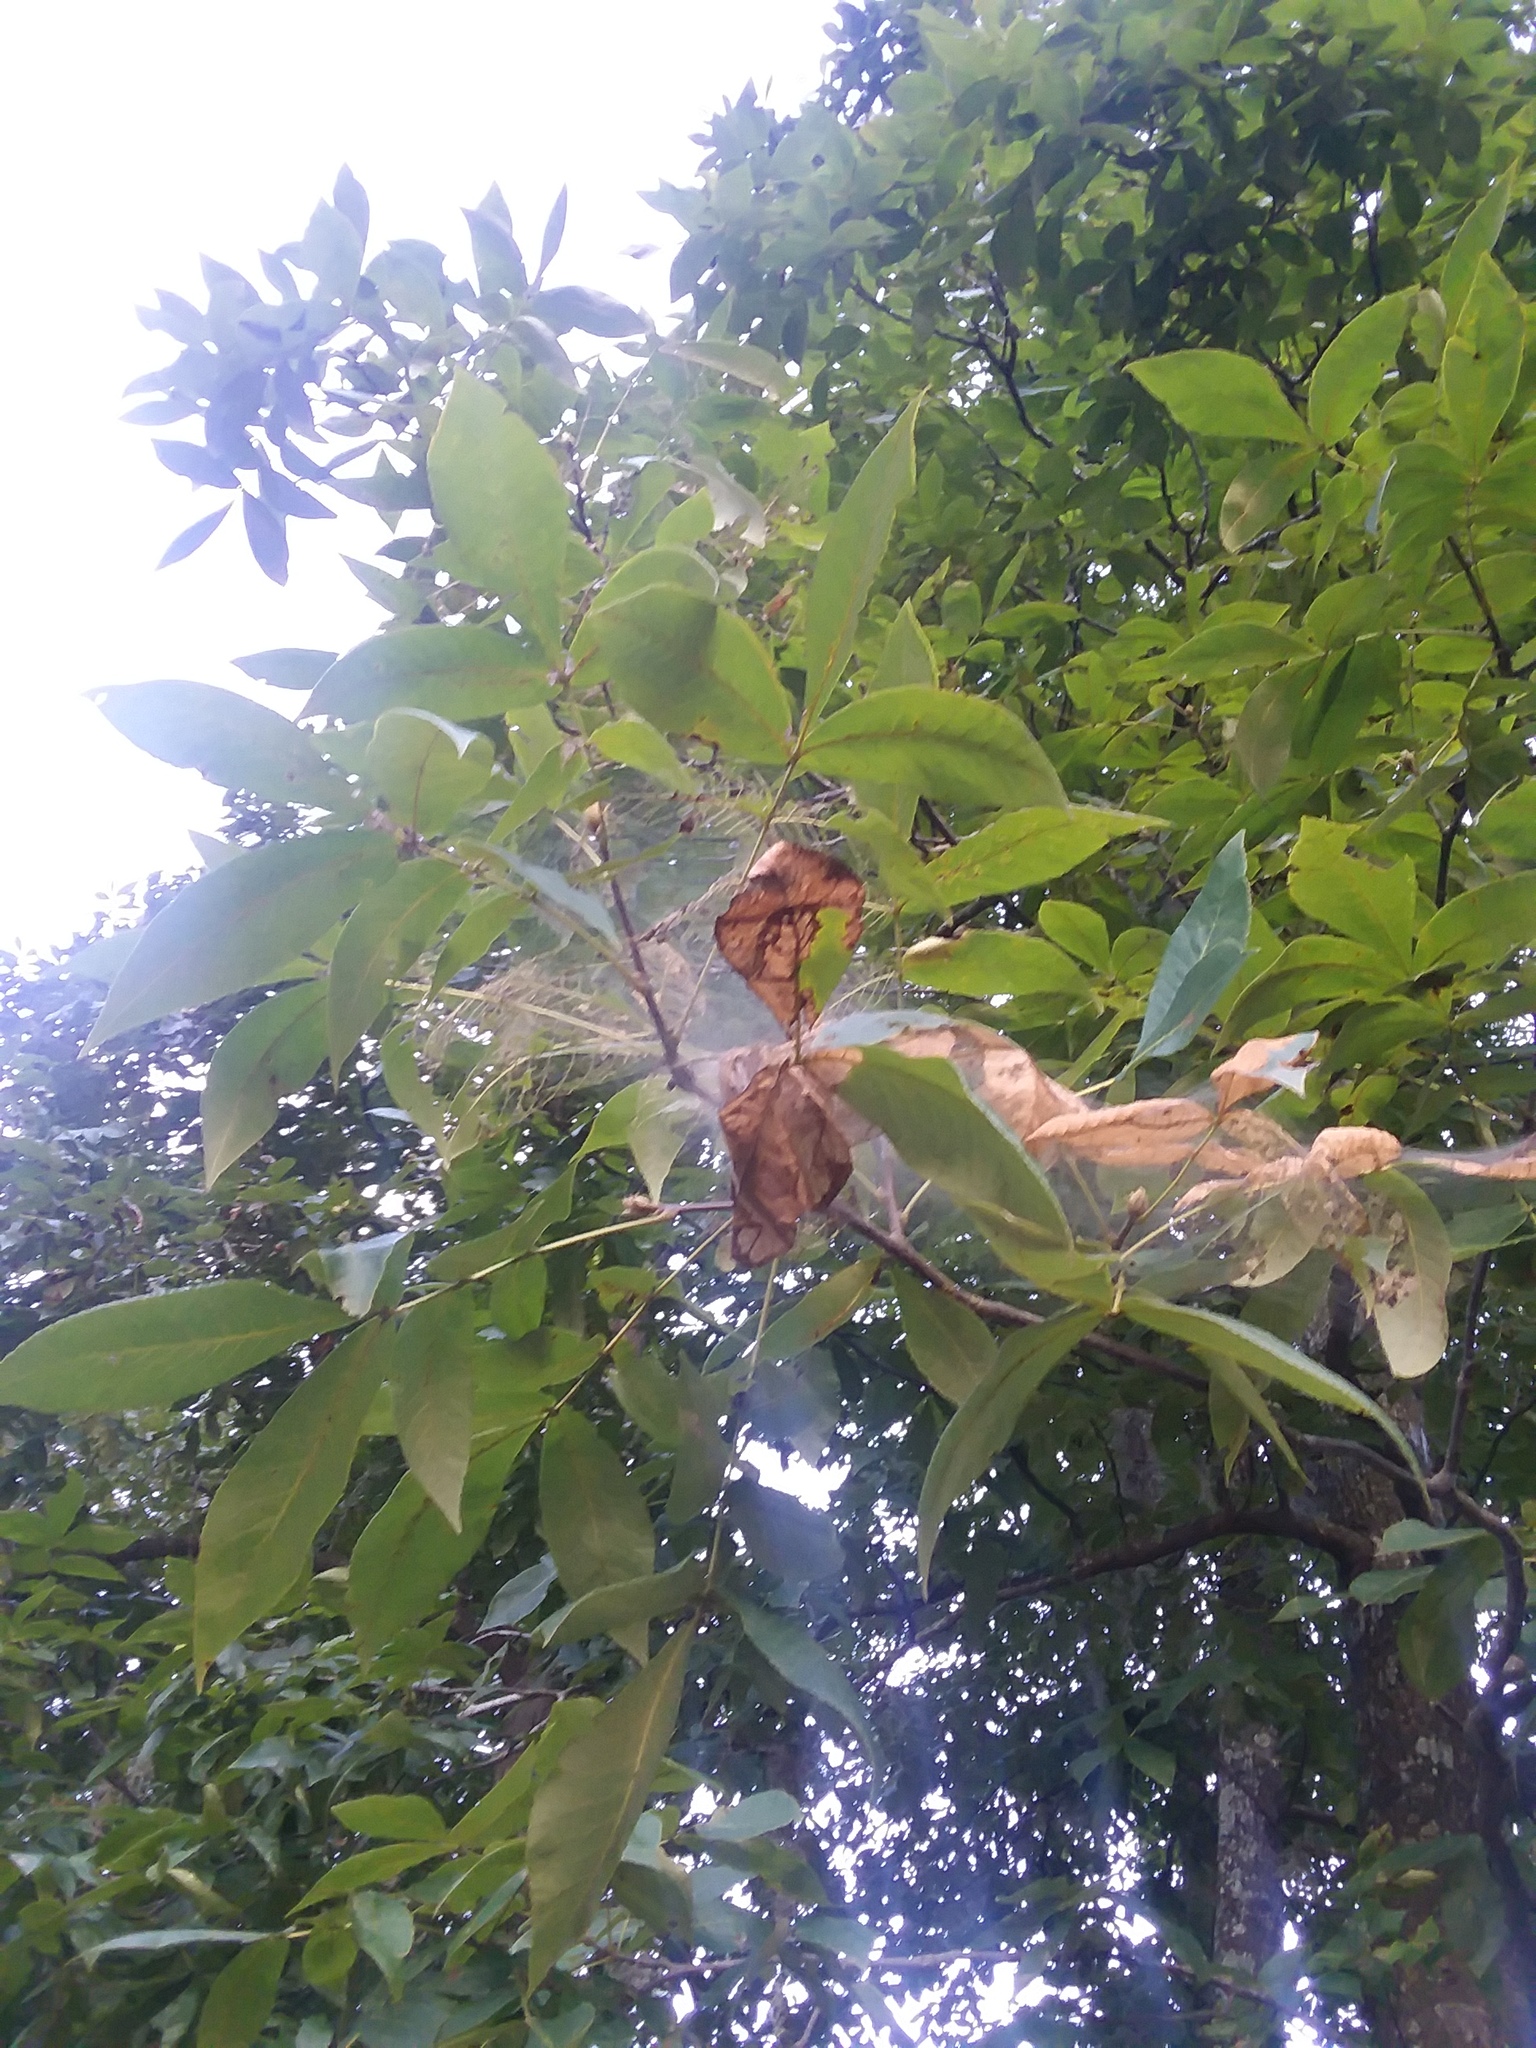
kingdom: Animalia
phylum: Arthropoda
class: Insecta
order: Lepidoptera
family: Erebidae
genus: Hyphantria
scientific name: Hyphantria cunea
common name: American white moth
